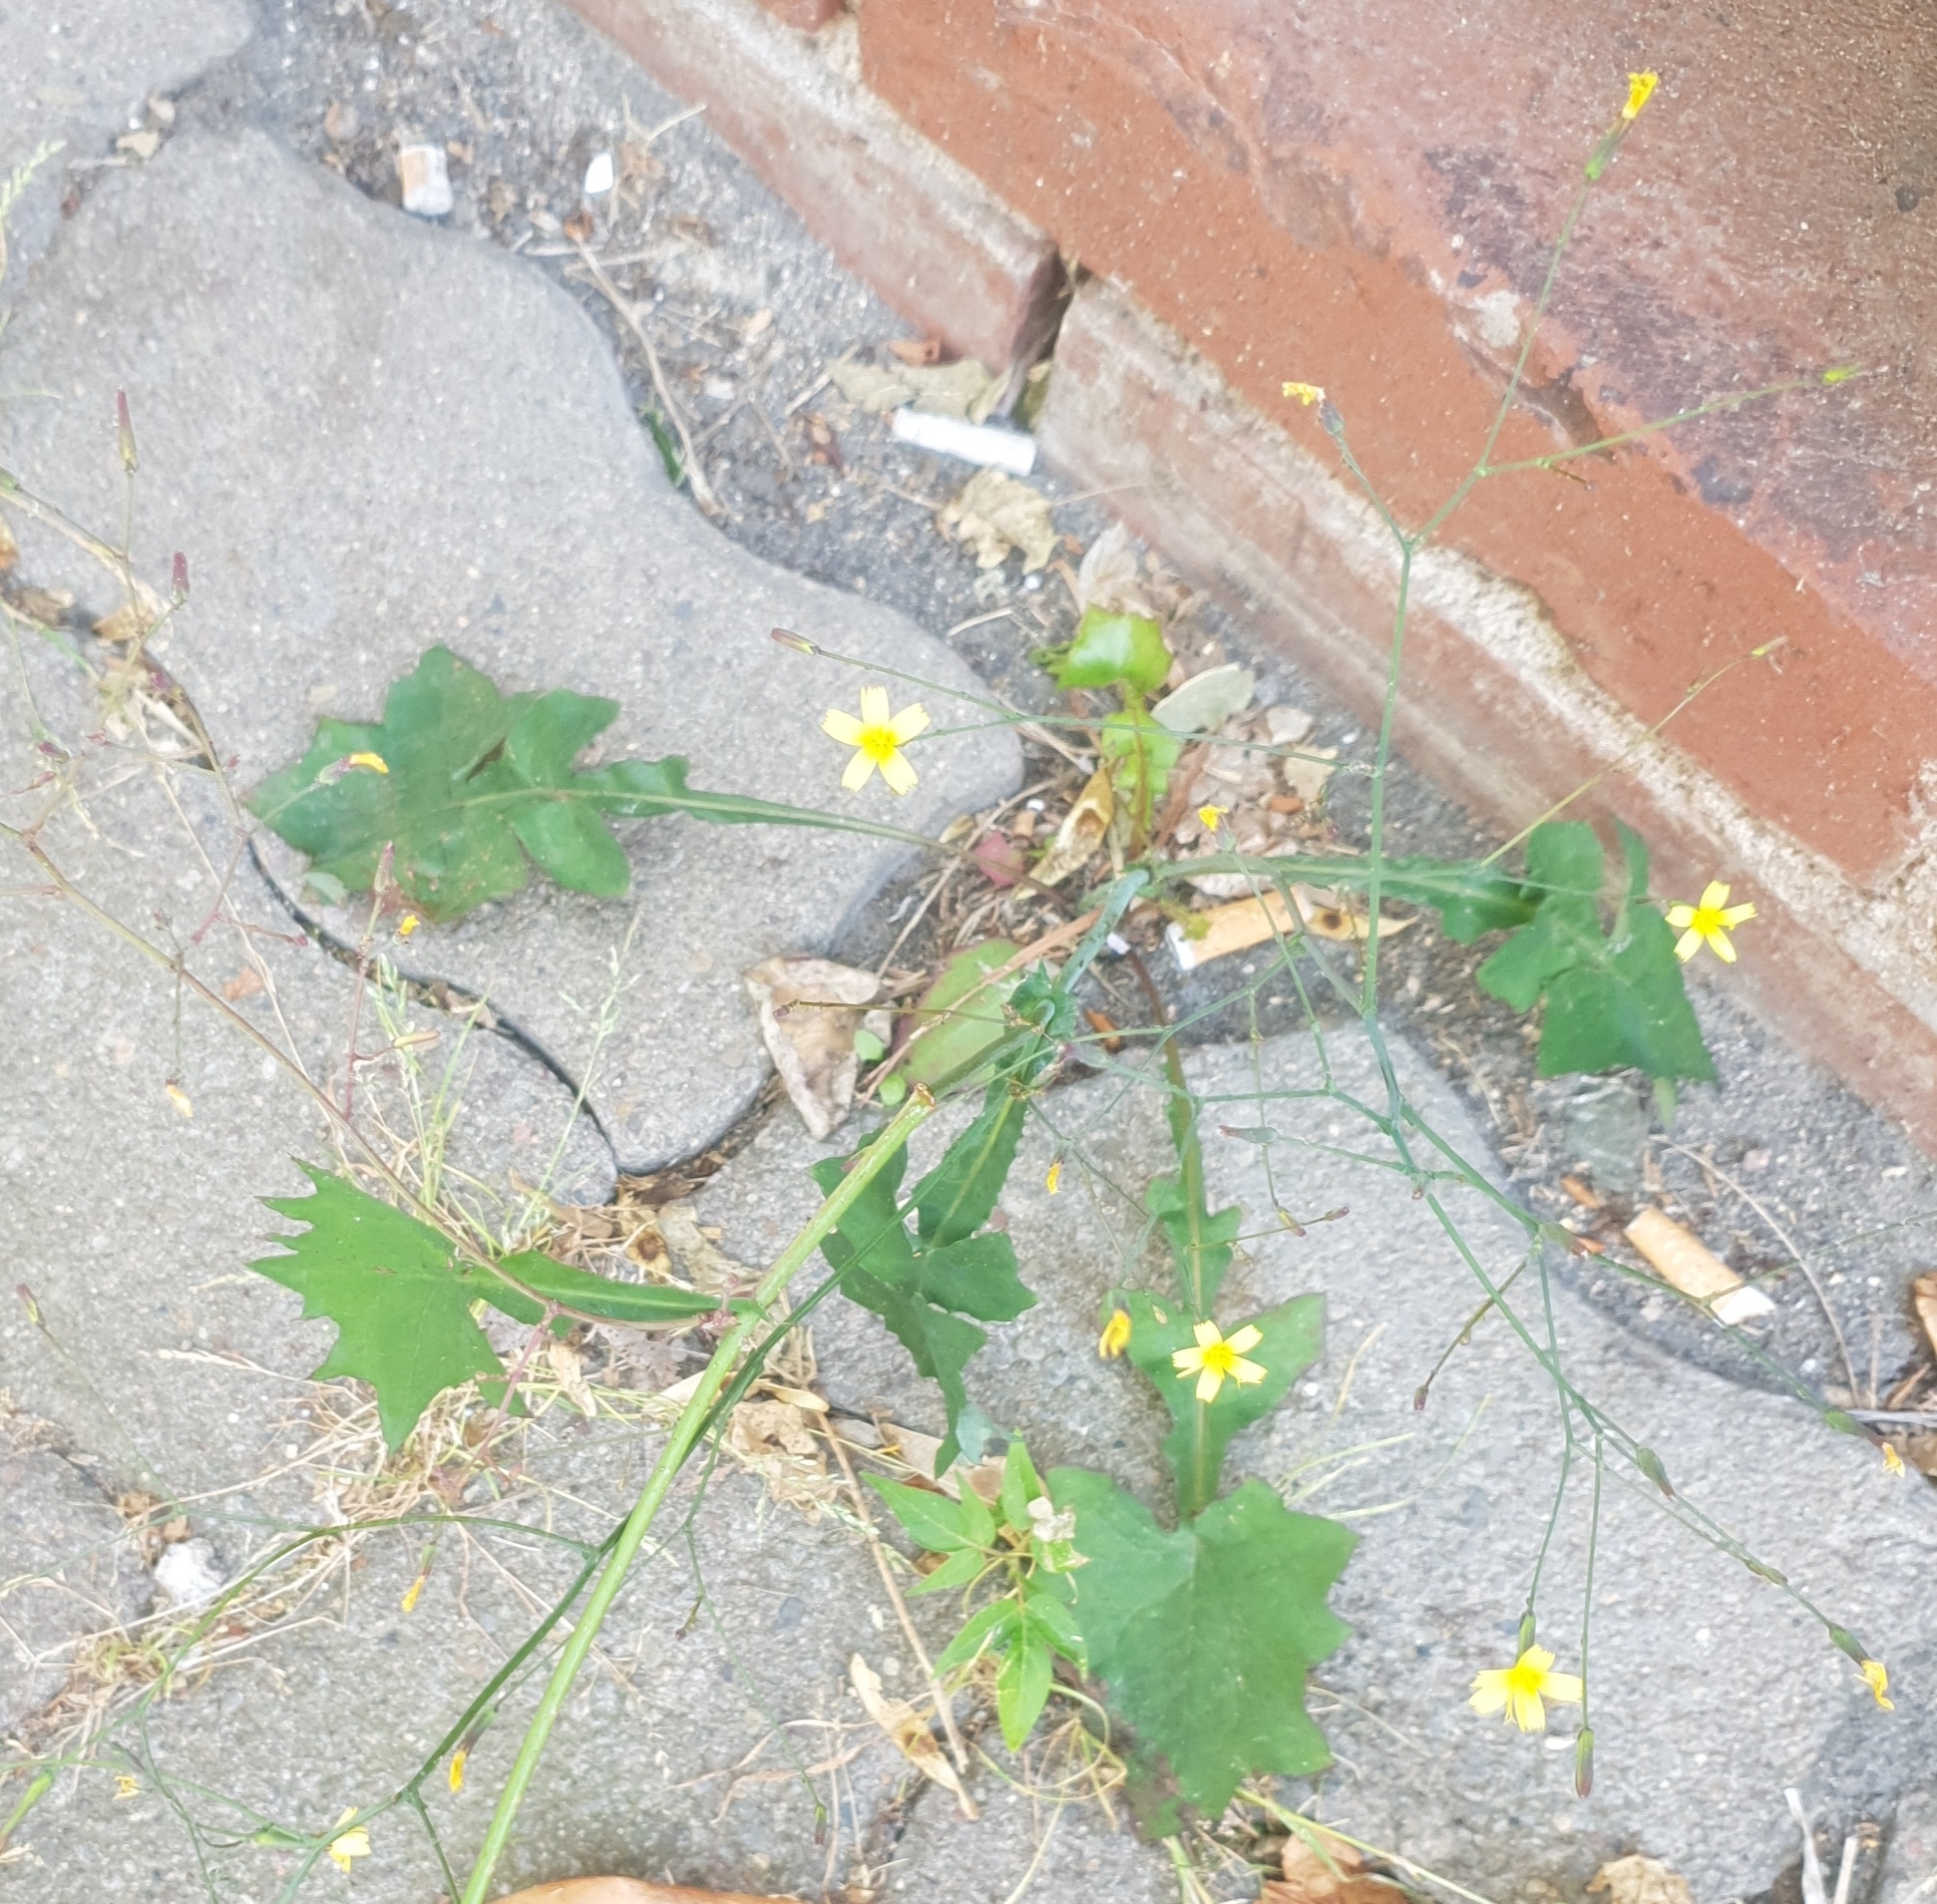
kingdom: Plantae
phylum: Tracheophyta
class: Magnoliopsida
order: Asterales
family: Asteraceae
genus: Mycelis
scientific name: Mycelis muralis
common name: Wall lettuce
